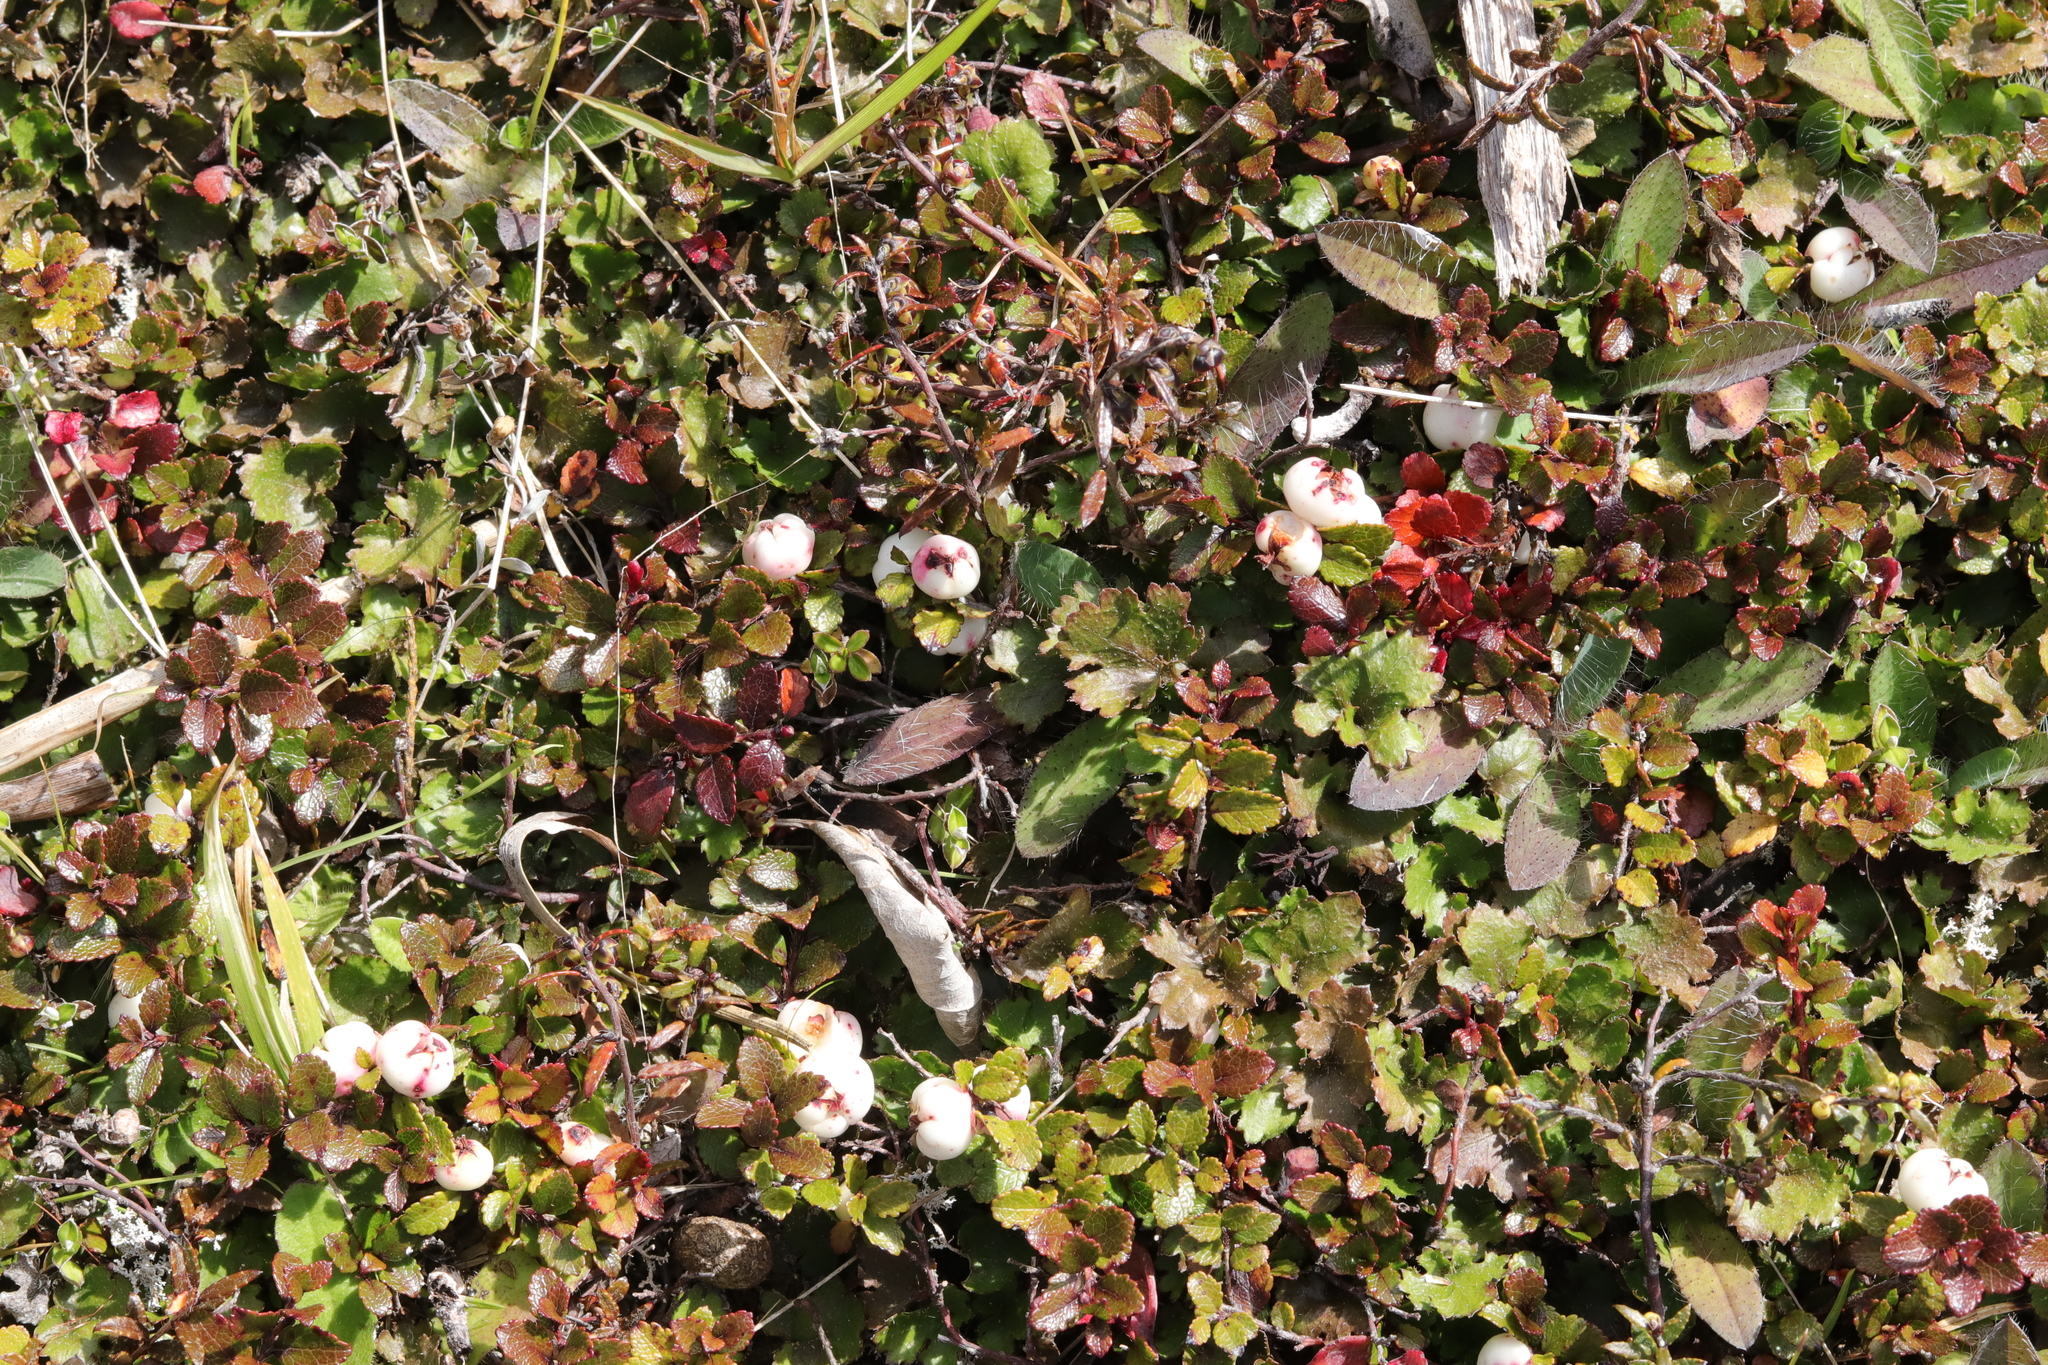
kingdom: Plantae
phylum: Tracheophyta
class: Magnoliopsida
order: Ericales
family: Ericaceae
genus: Gaultheria
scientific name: Gaultheria depressa
